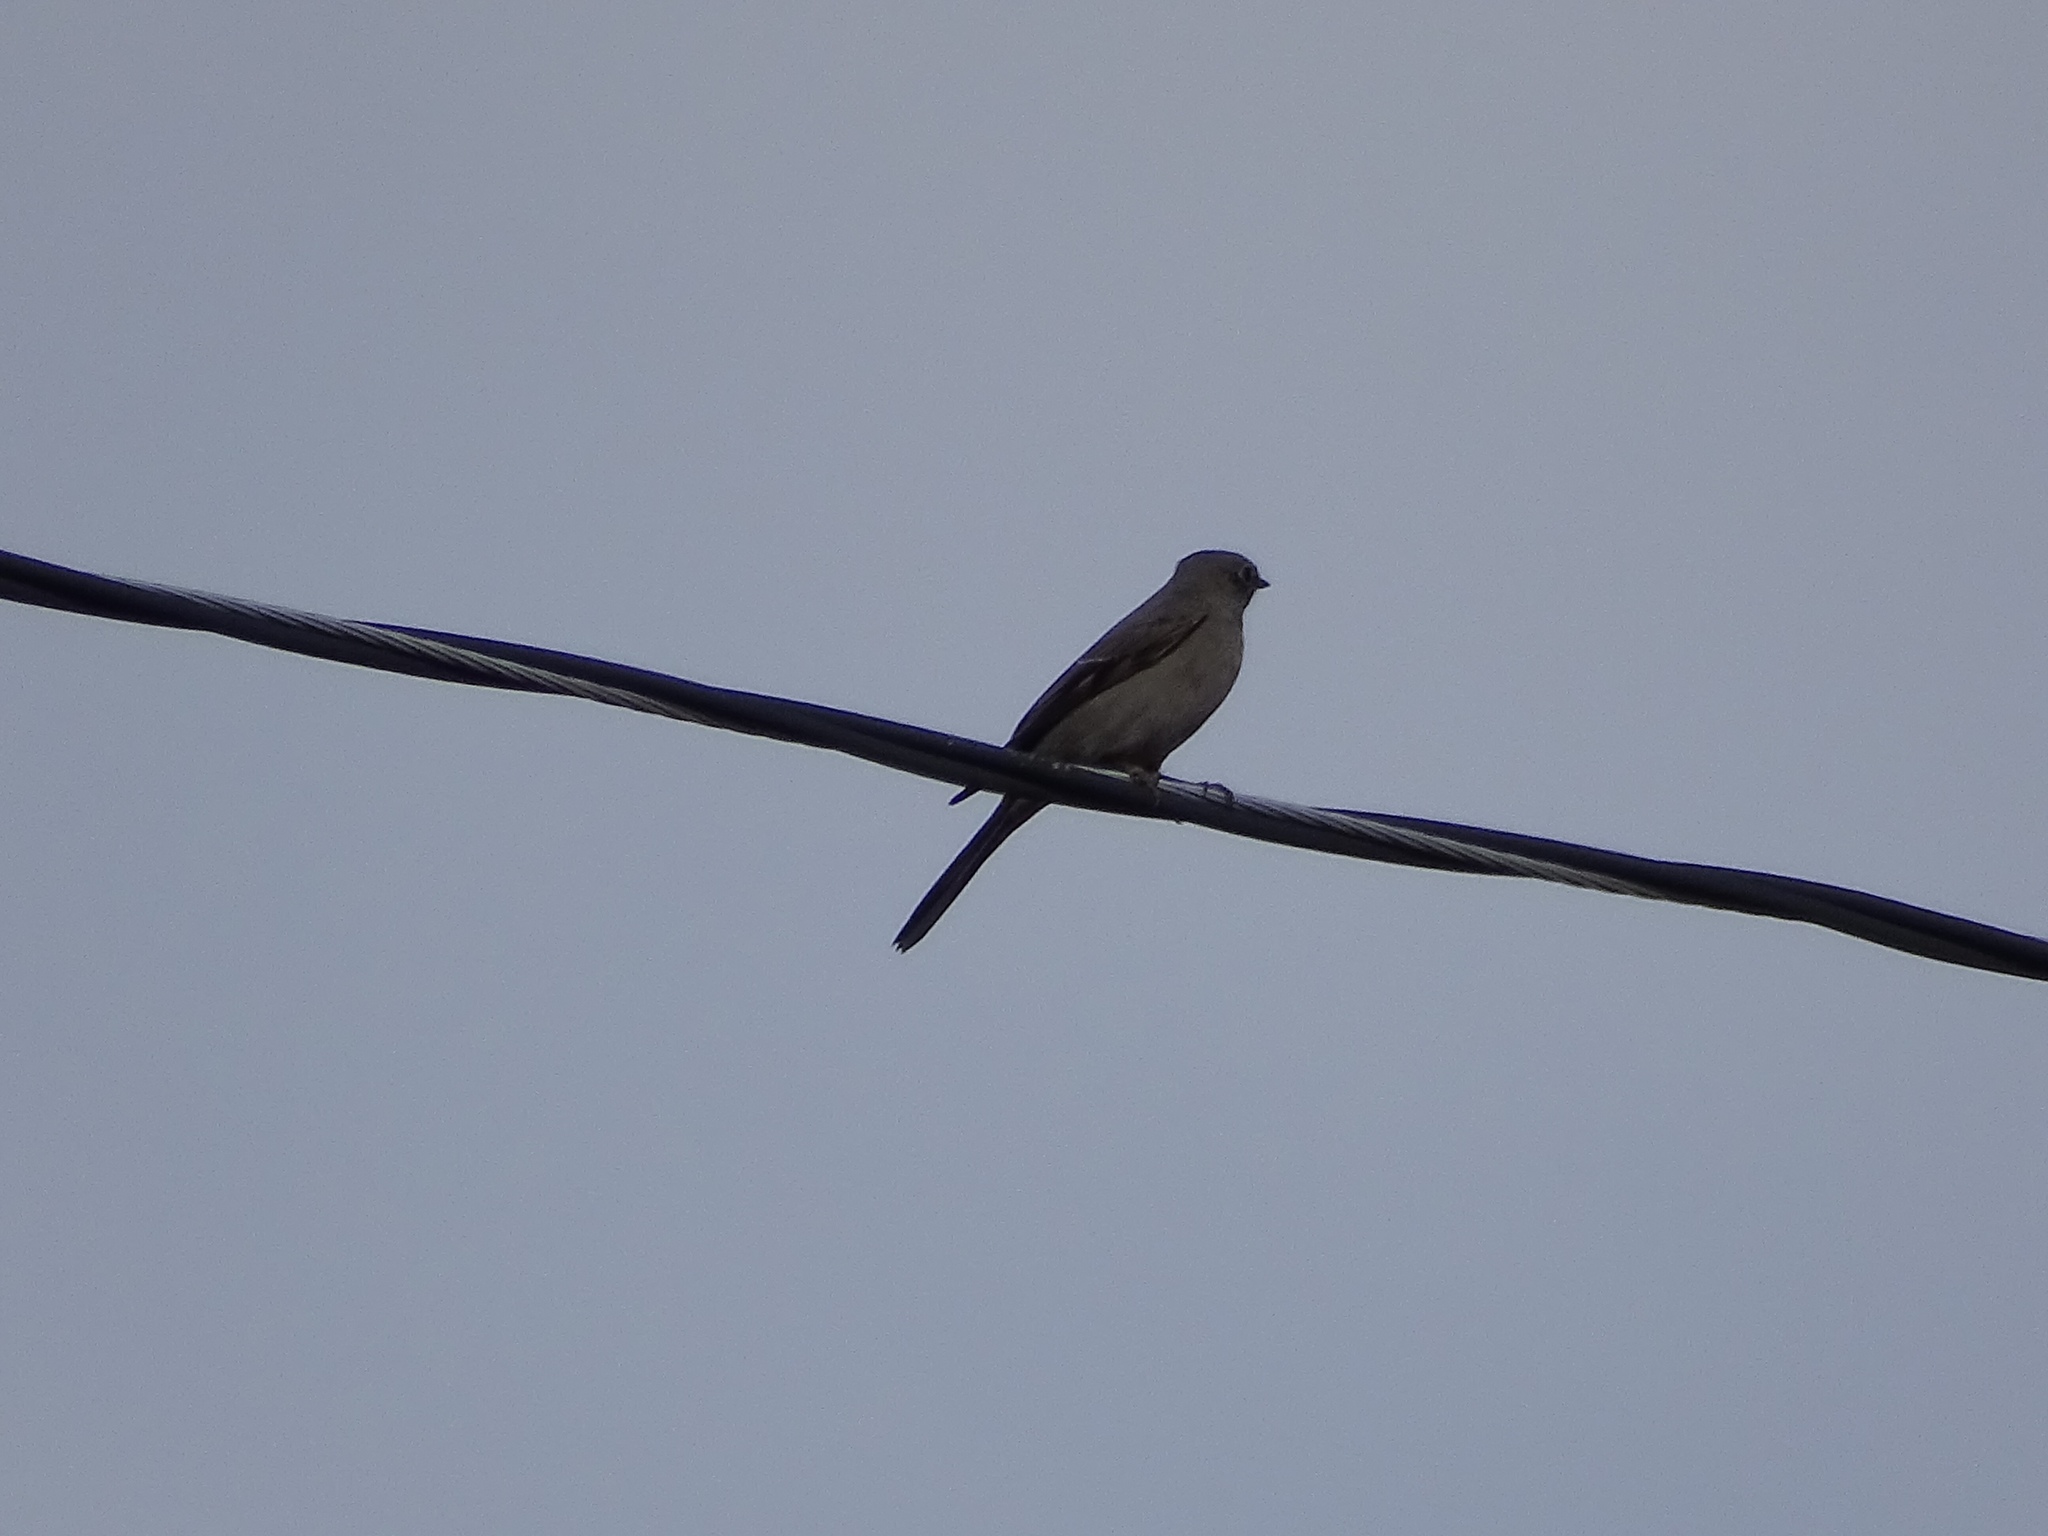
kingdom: Animalia
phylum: Chordata
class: Aves
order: Passeriformes
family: Turdidae
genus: Myadestes
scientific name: Myadestes townsendi
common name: Townsend's solitaire
